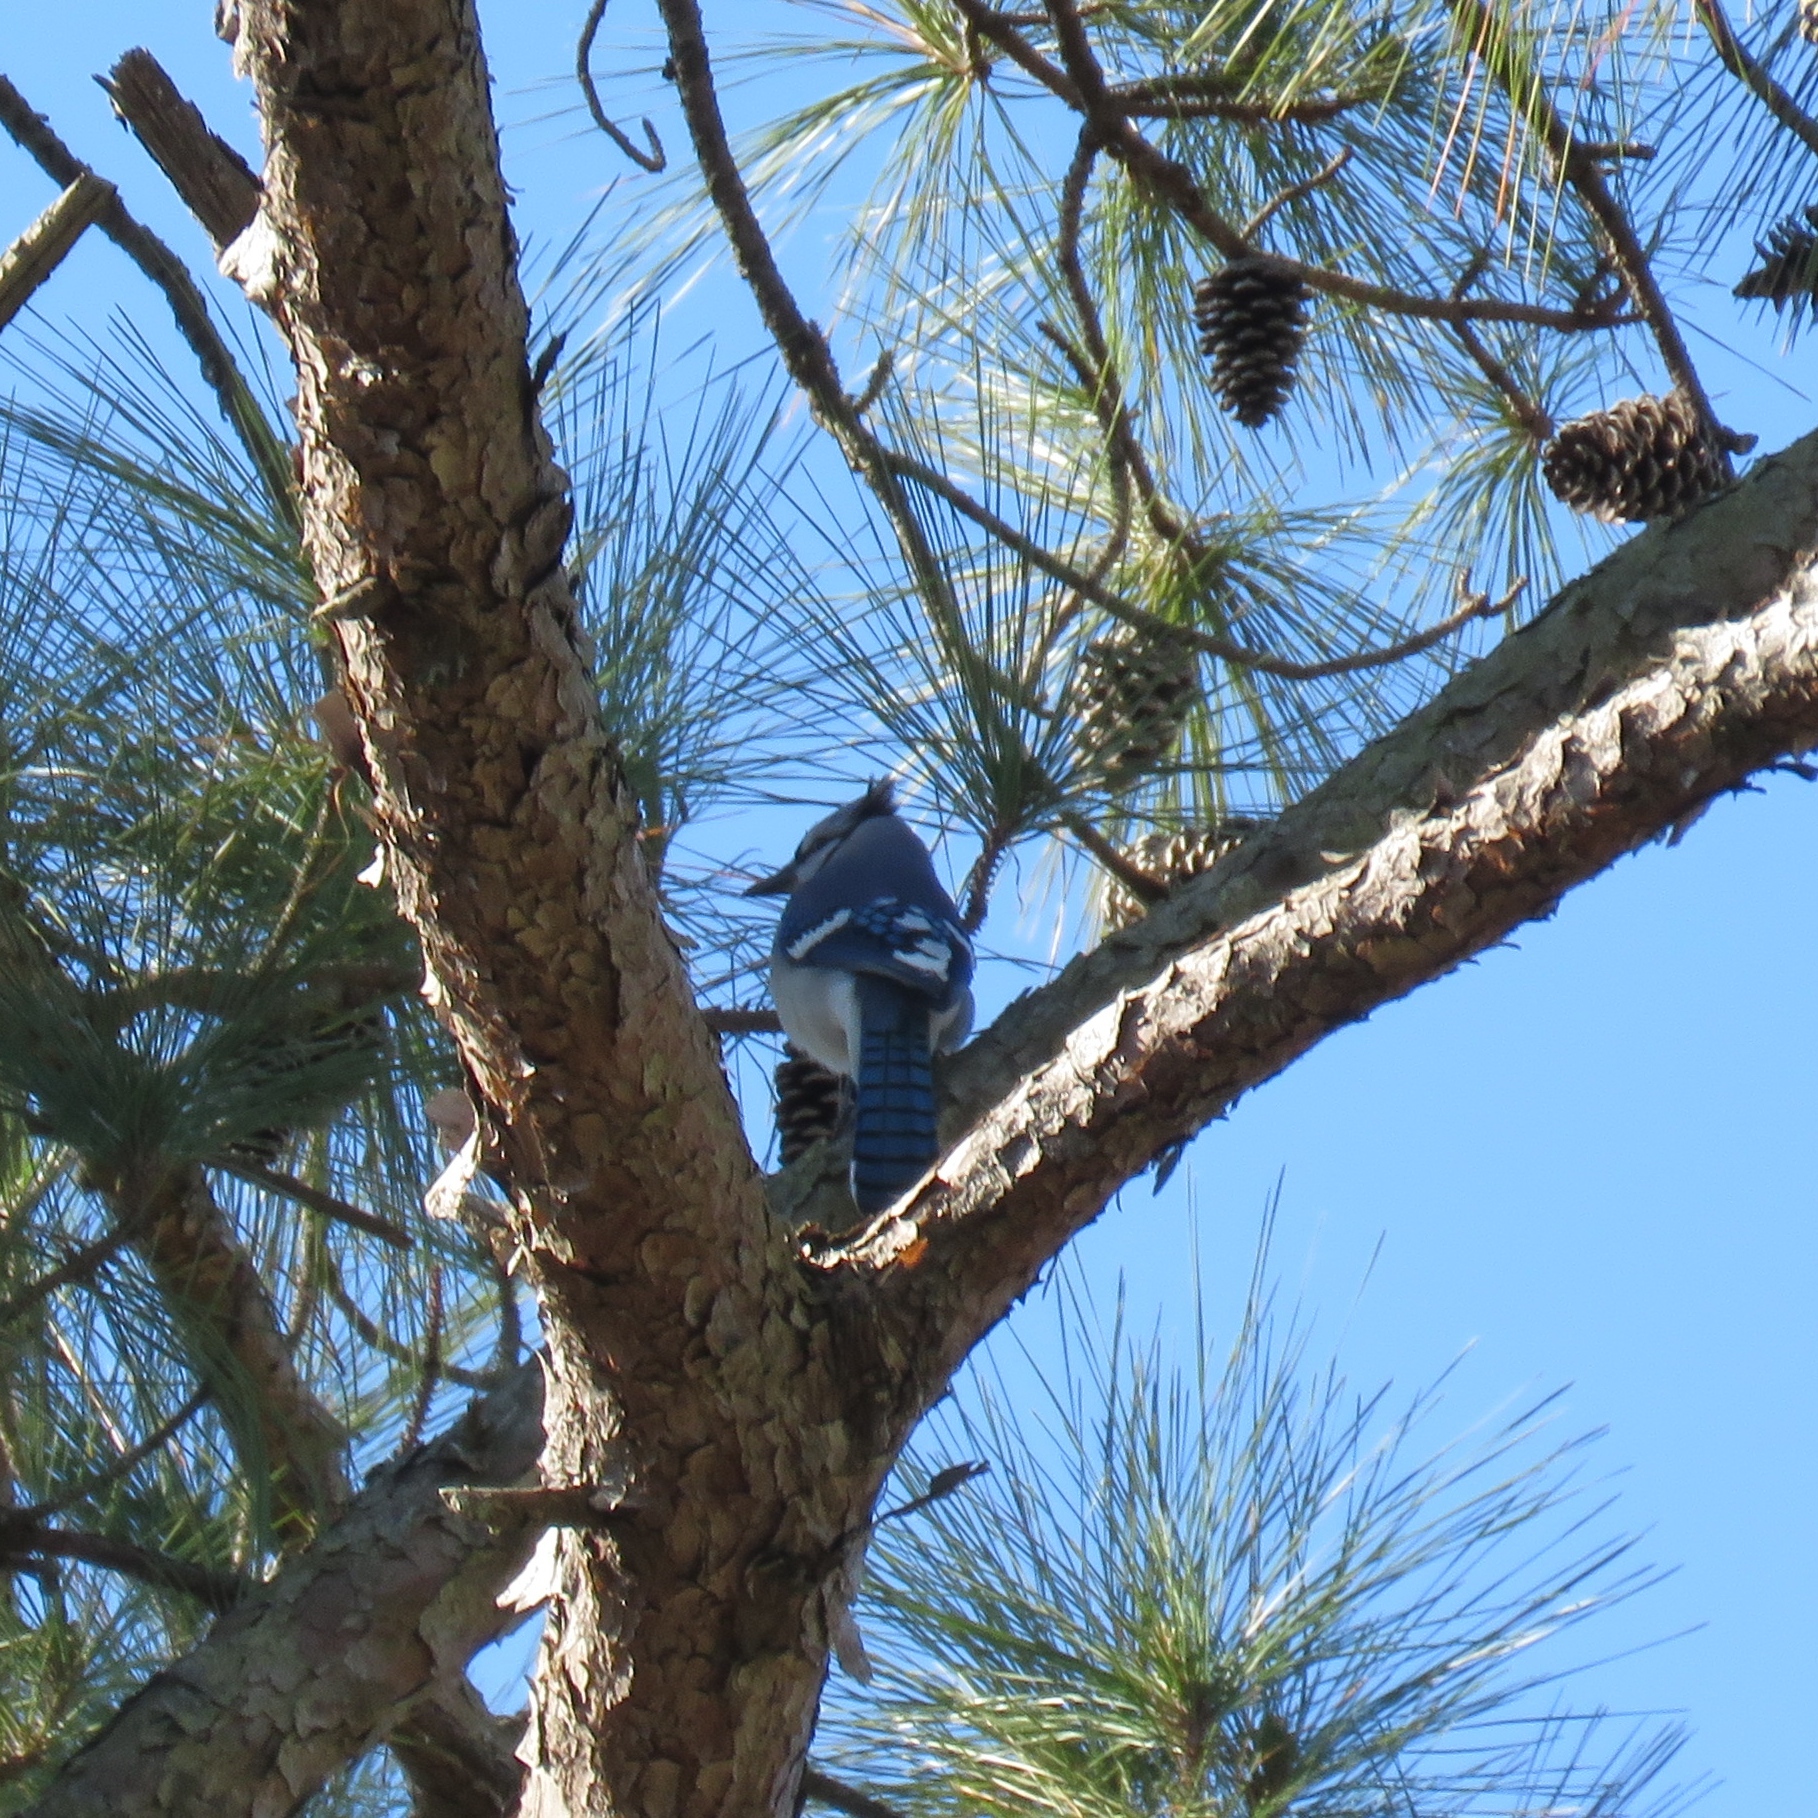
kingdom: Animalia
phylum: Chordata
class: Aves
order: Passeriformes
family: Corvidae
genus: Cyanocitta
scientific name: Cyanocitta cristata
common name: Blue jay
